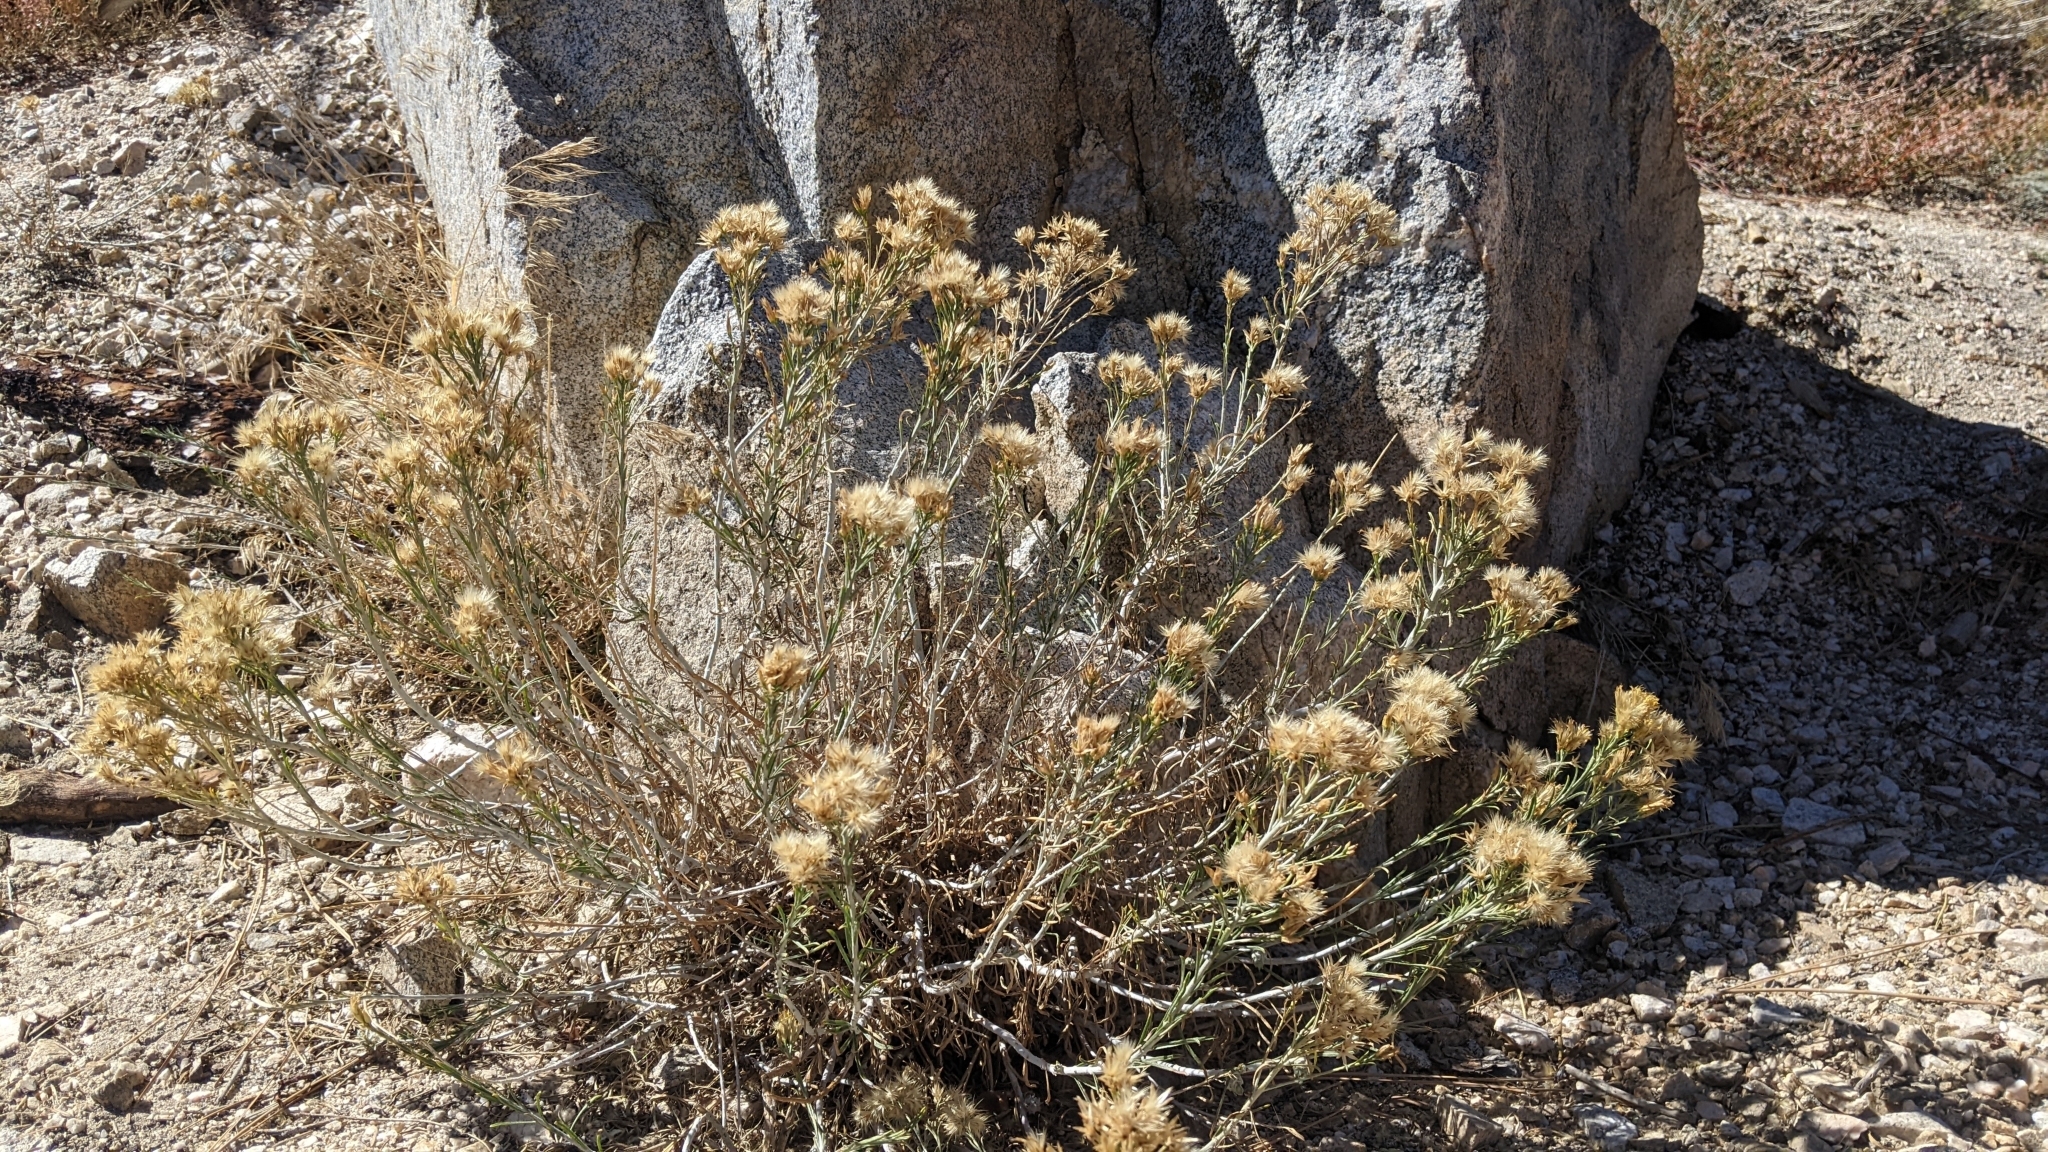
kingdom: Plantae
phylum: Tracheophyta
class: Magnoliopsida
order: Asterales
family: Asteraceae
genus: Ericameria
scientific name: Ericameria nauseosa
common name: Rubber rabbitbrush
